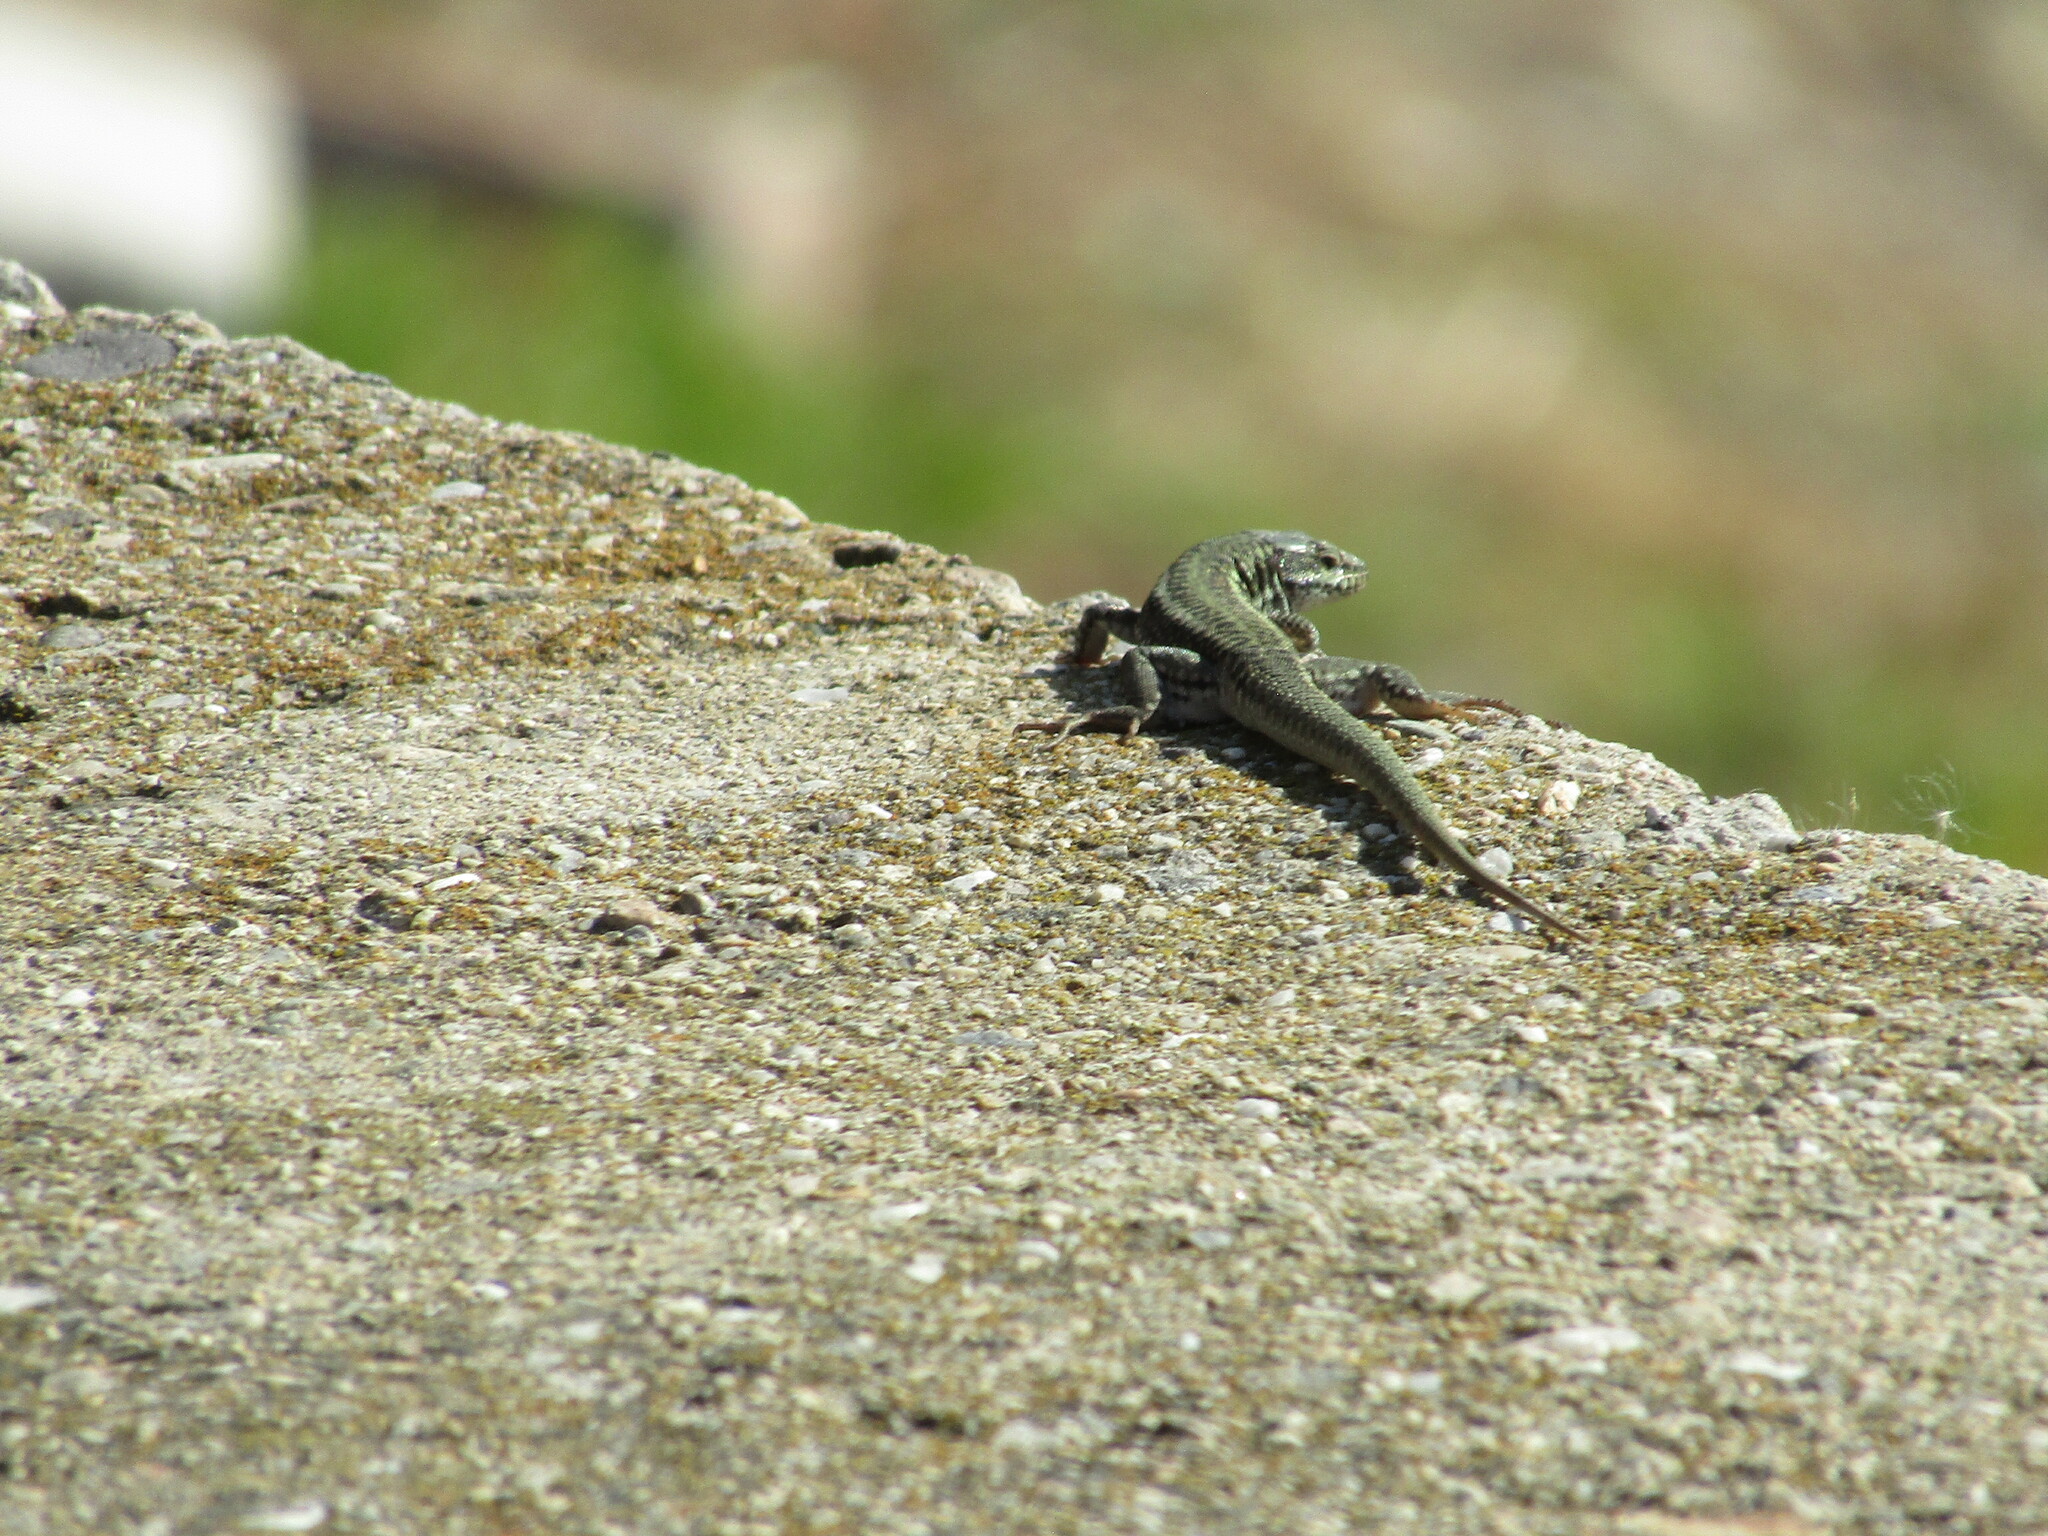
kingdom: Animalia
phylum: Chordata
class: Squamata
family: Lacertidae
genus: Podarcis
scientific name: Podarcis erhardii
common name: Erhard's wall lizard
